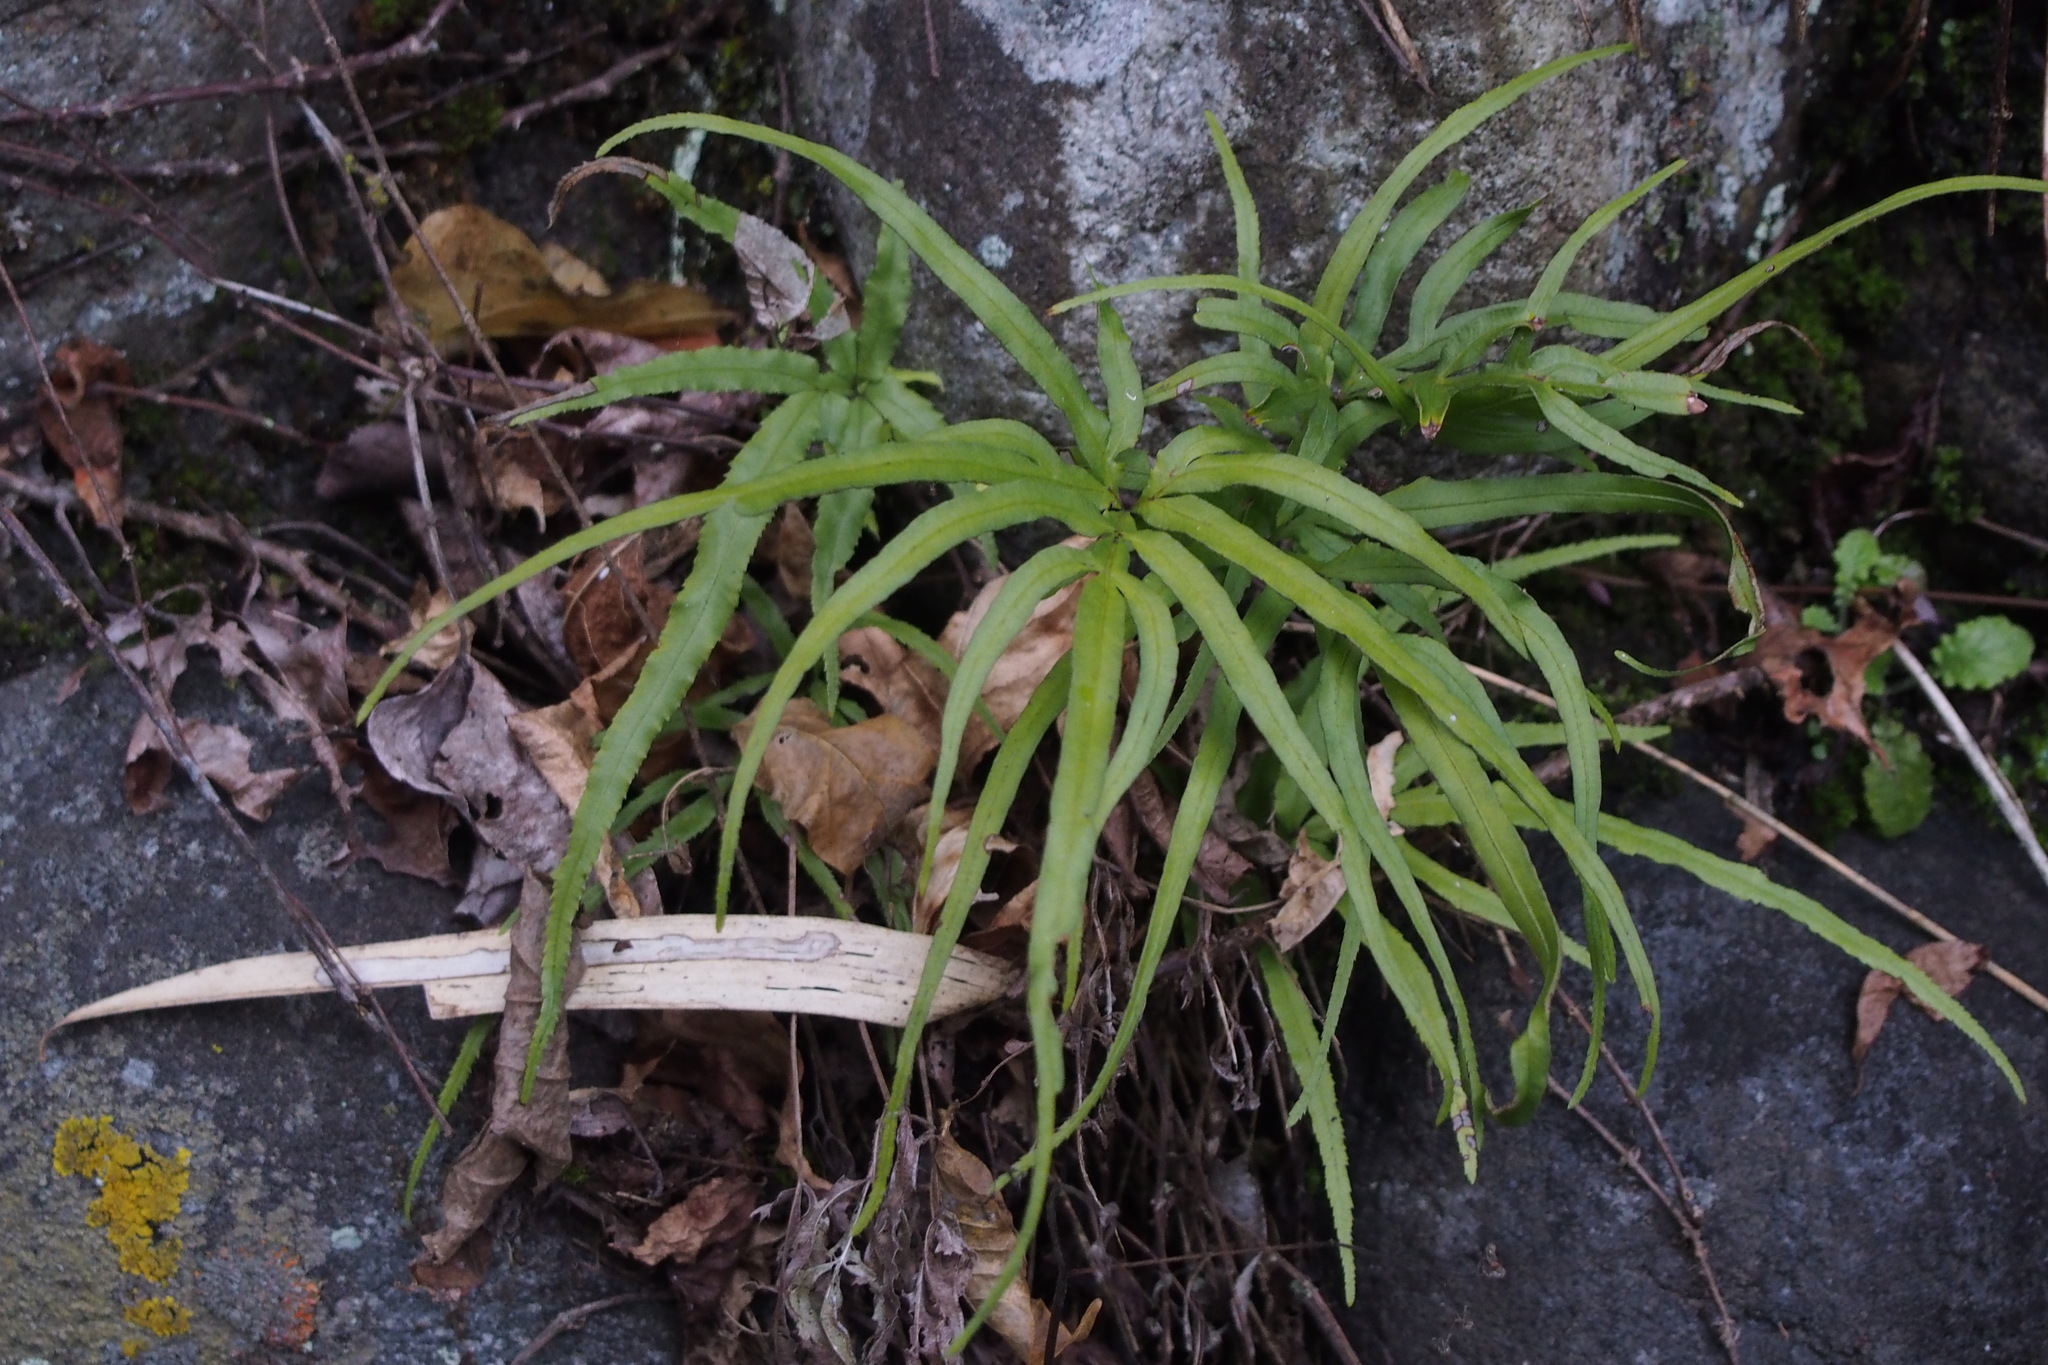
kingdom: Plantae
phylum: Tracheophyta
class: Polypodiopsida
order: Polypodiales
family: Pteridaceae
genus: Pteris
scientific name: Pteris multifida
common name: Spider brake
